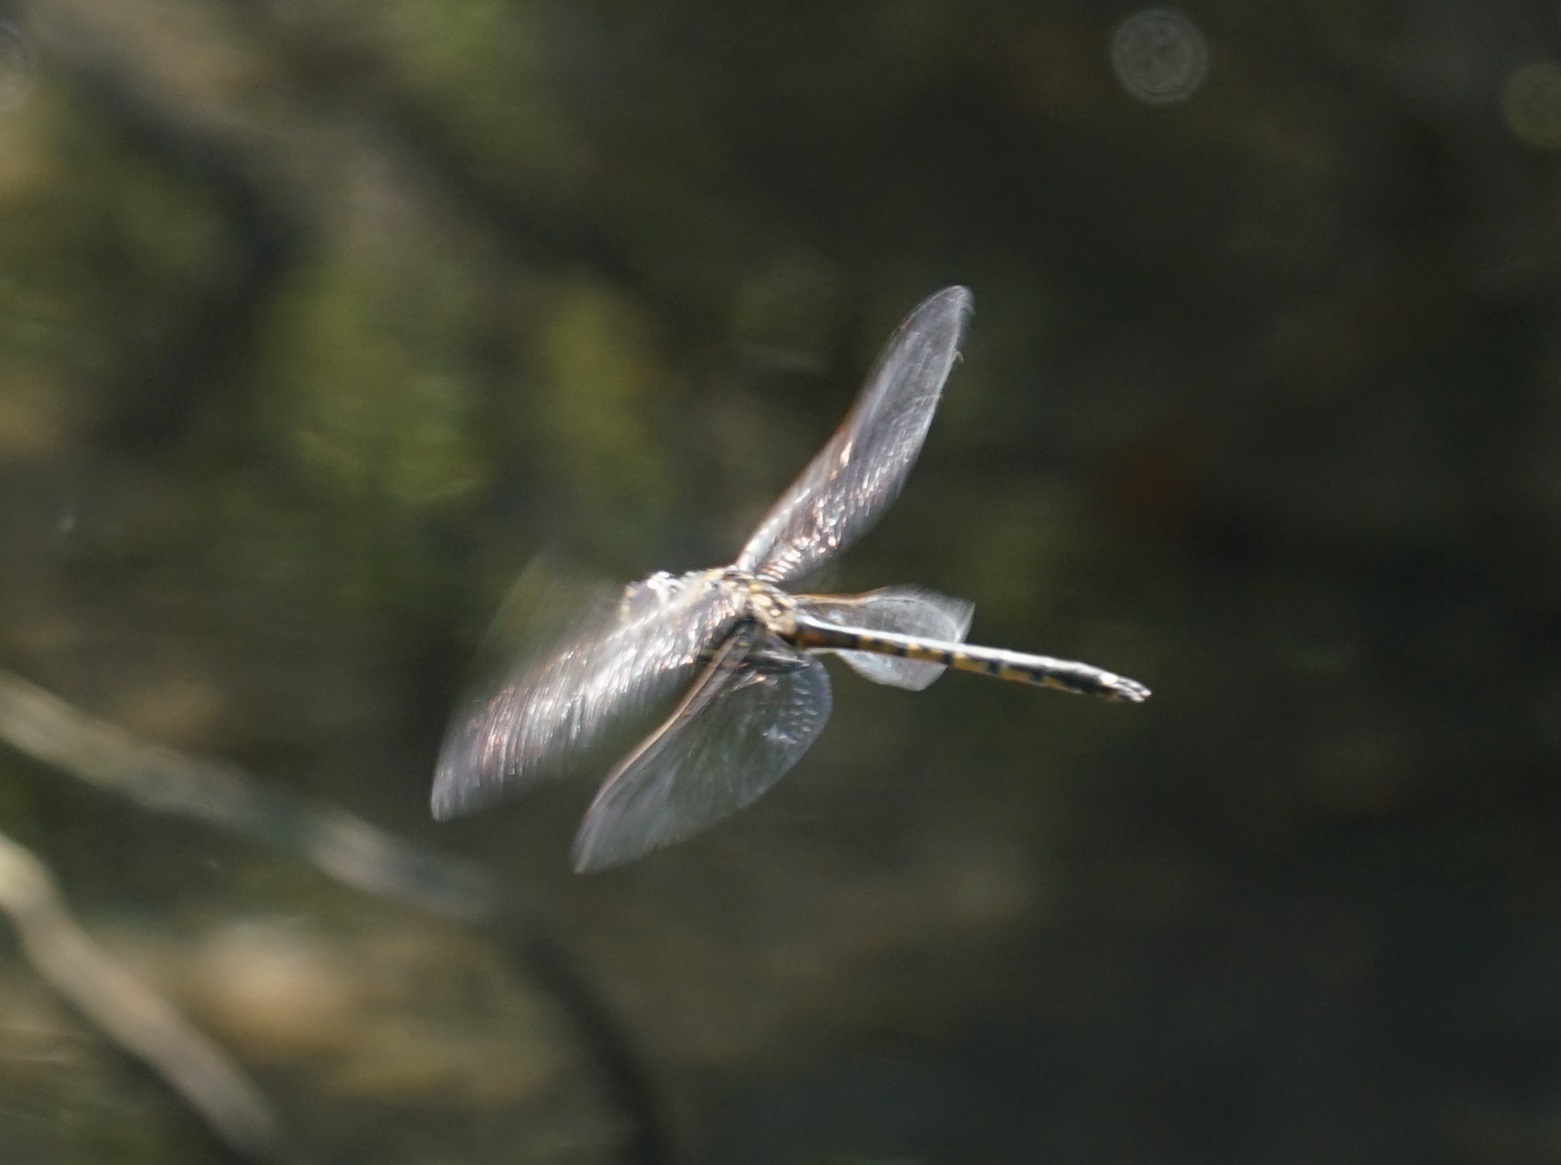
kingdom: Animalia
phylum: Arthropoda
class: Insecta
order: Odonata
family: Corduliidae
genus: Hemicordulia
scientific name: Hemicordulia tau
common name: Tau emerald
